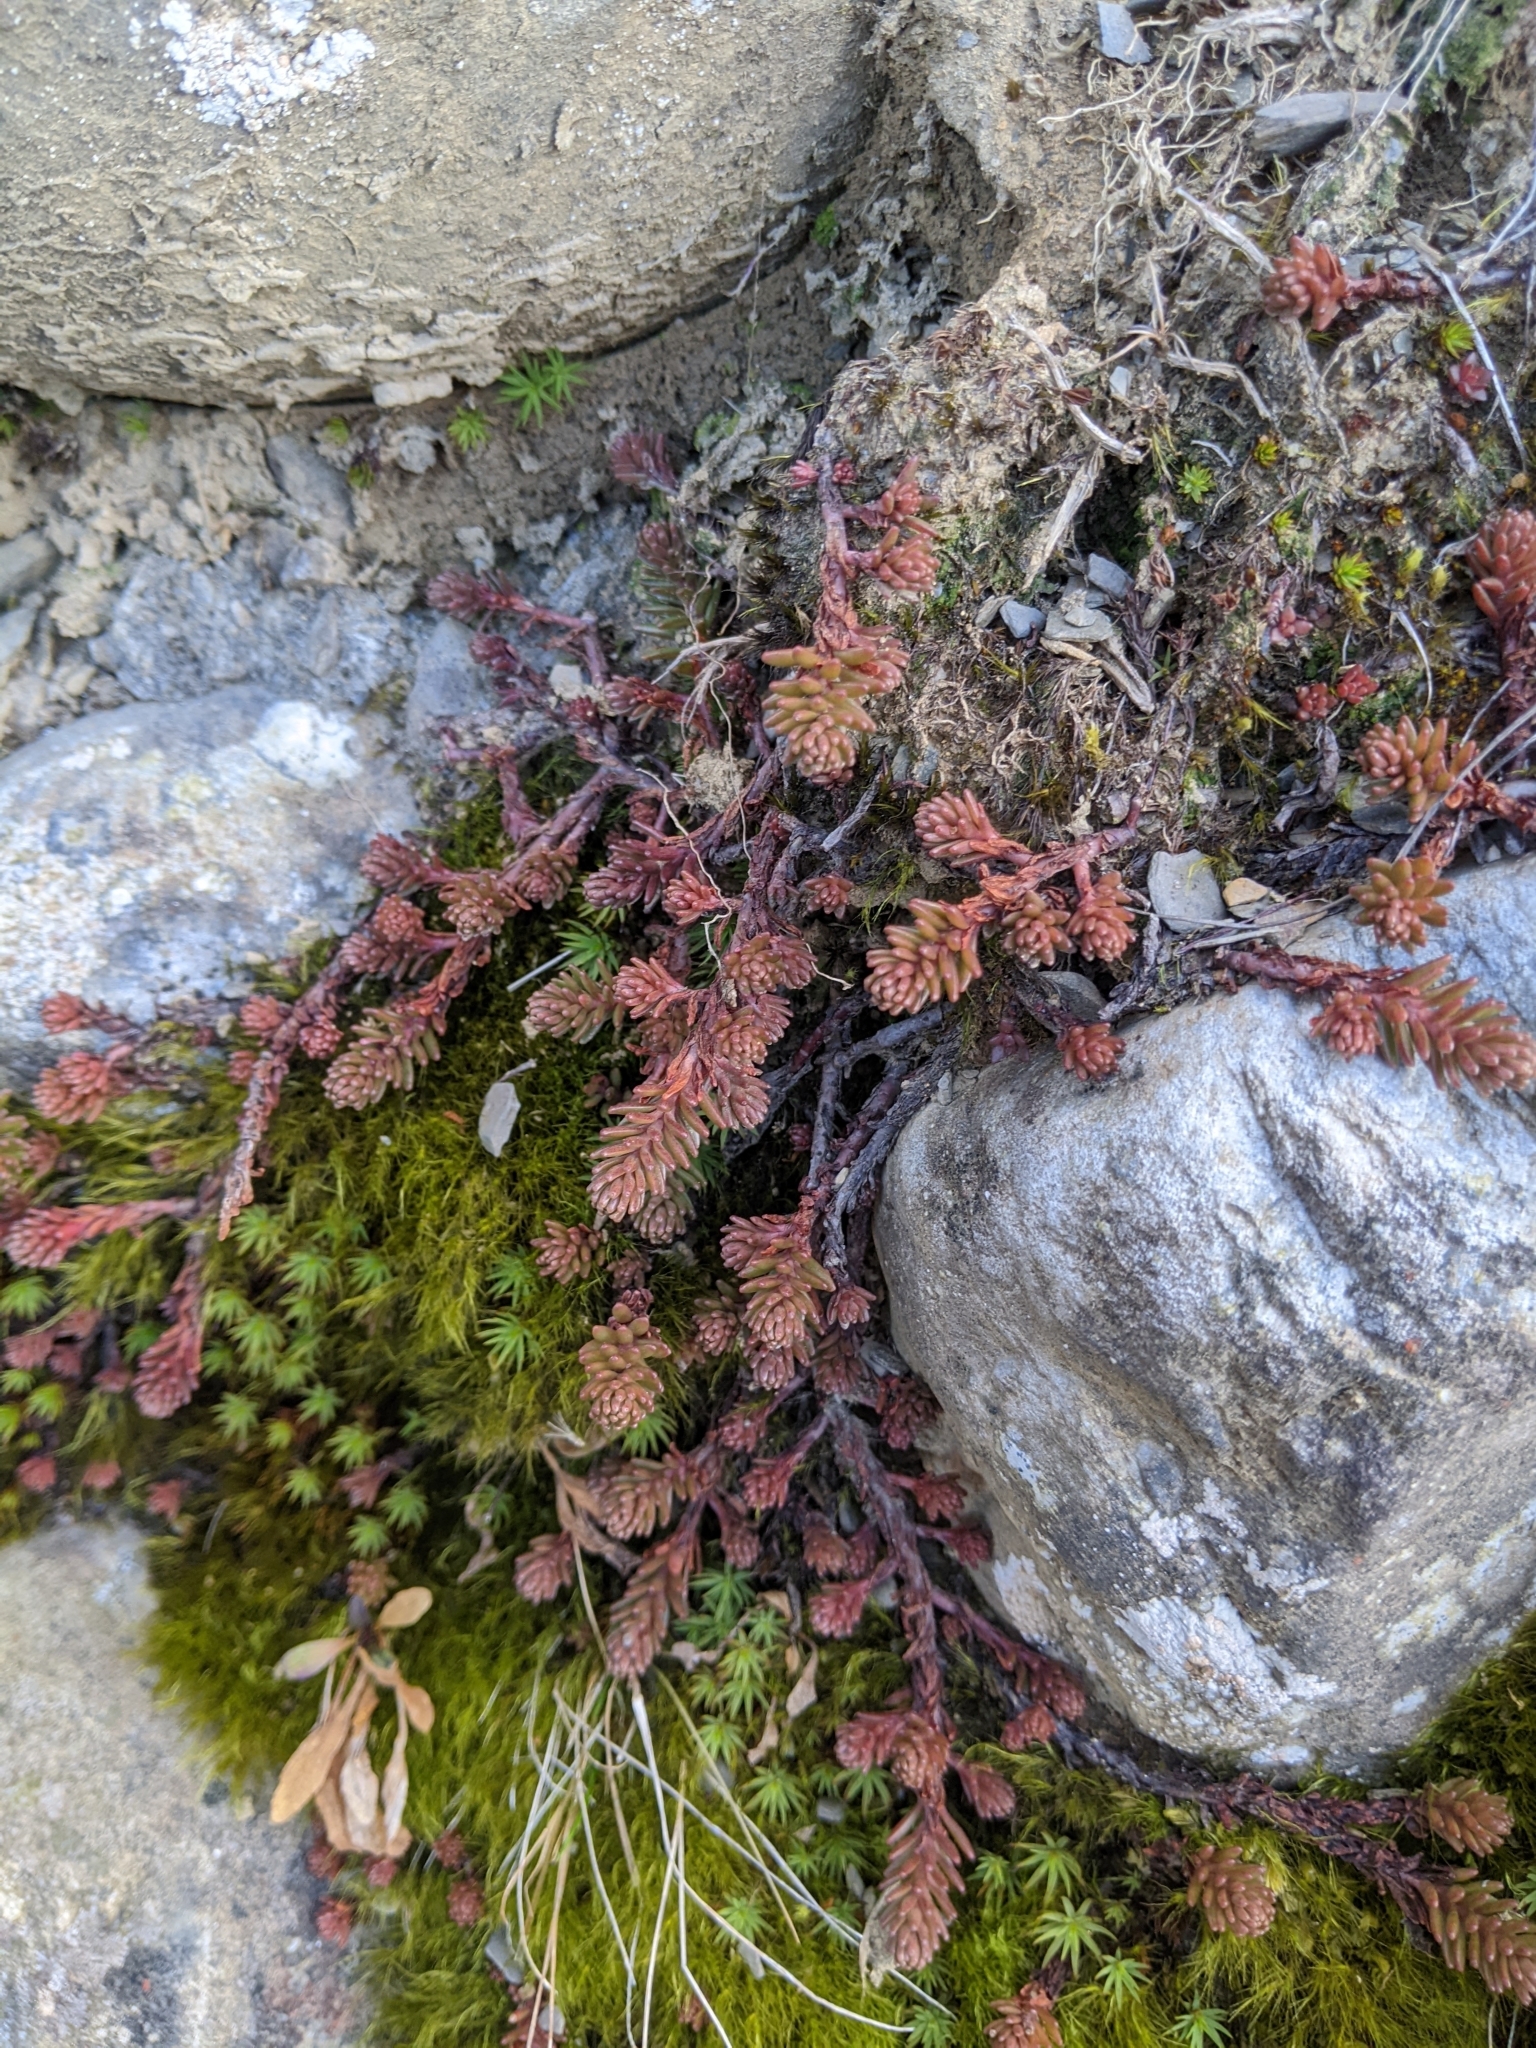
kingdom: Plantae
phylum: Tracheophyta
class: Magnoliopsida
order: Saxifragales
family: Crassulaceae
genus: Sedum
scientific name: Sedum morrisonense
